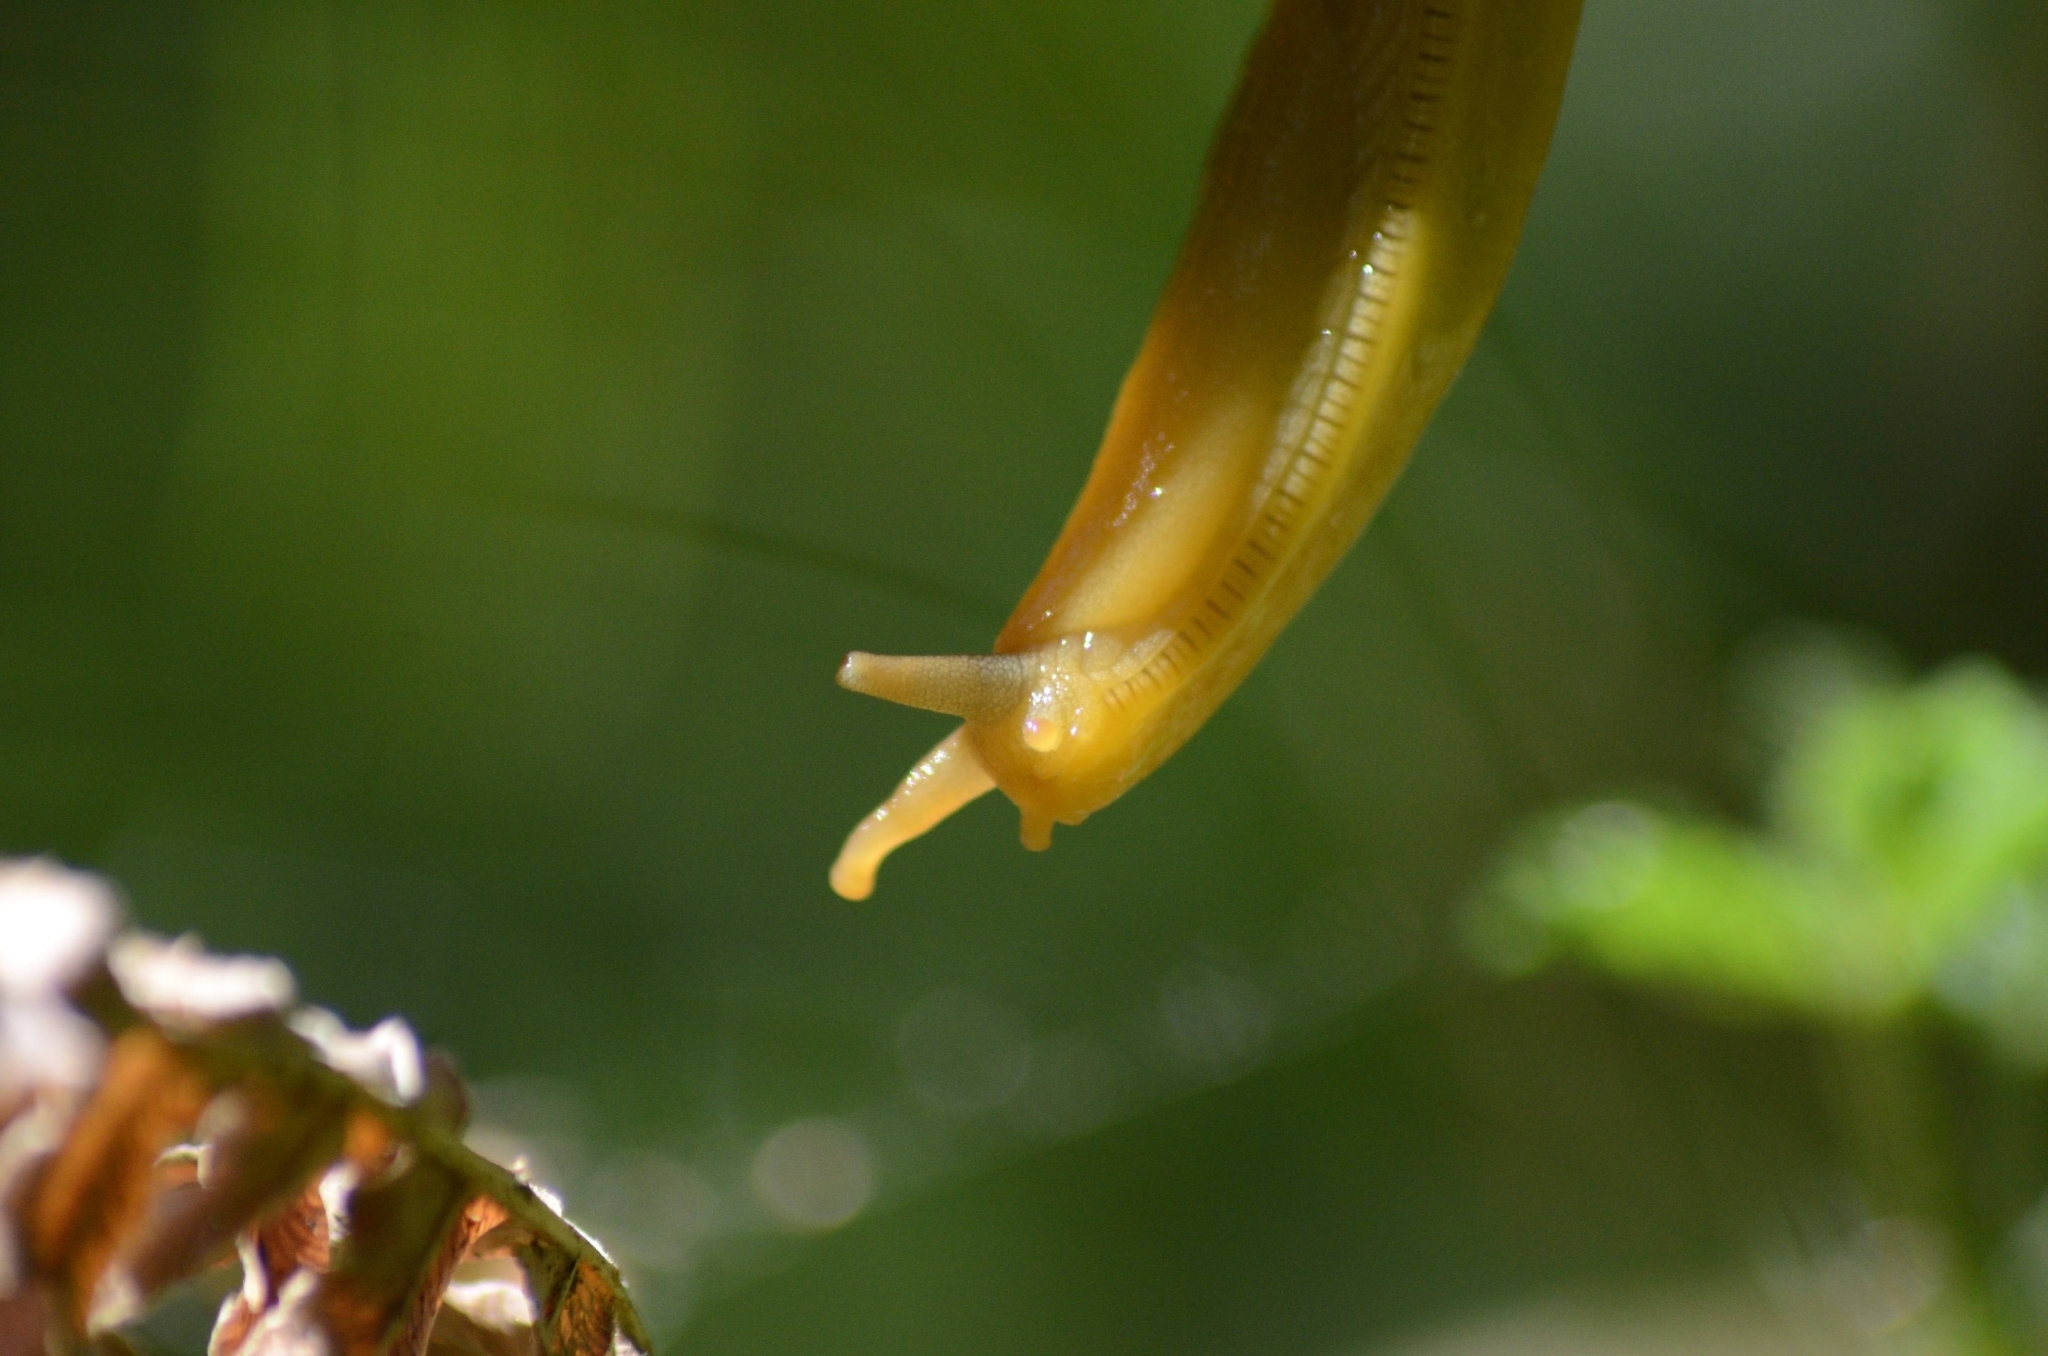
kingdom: Animalia
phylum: Mollusca
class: Gastropoda
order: Stylommatophora
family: Ariolimacidae
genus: Ariolimax
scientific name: Ariolimax columbianus
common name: Pacific banana slug
